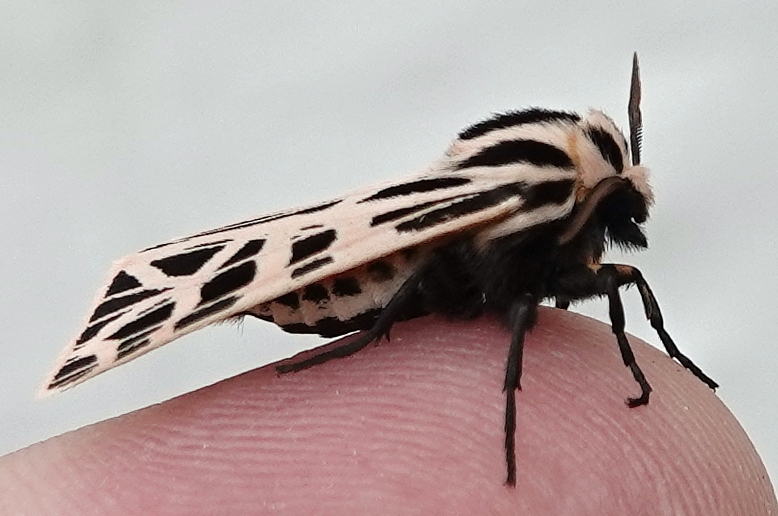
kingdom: Animalia
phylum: Arthropoda
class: Insecta
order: Lepidoptera
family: Erebidae
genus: Grammia
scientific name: Grammia parthenice
